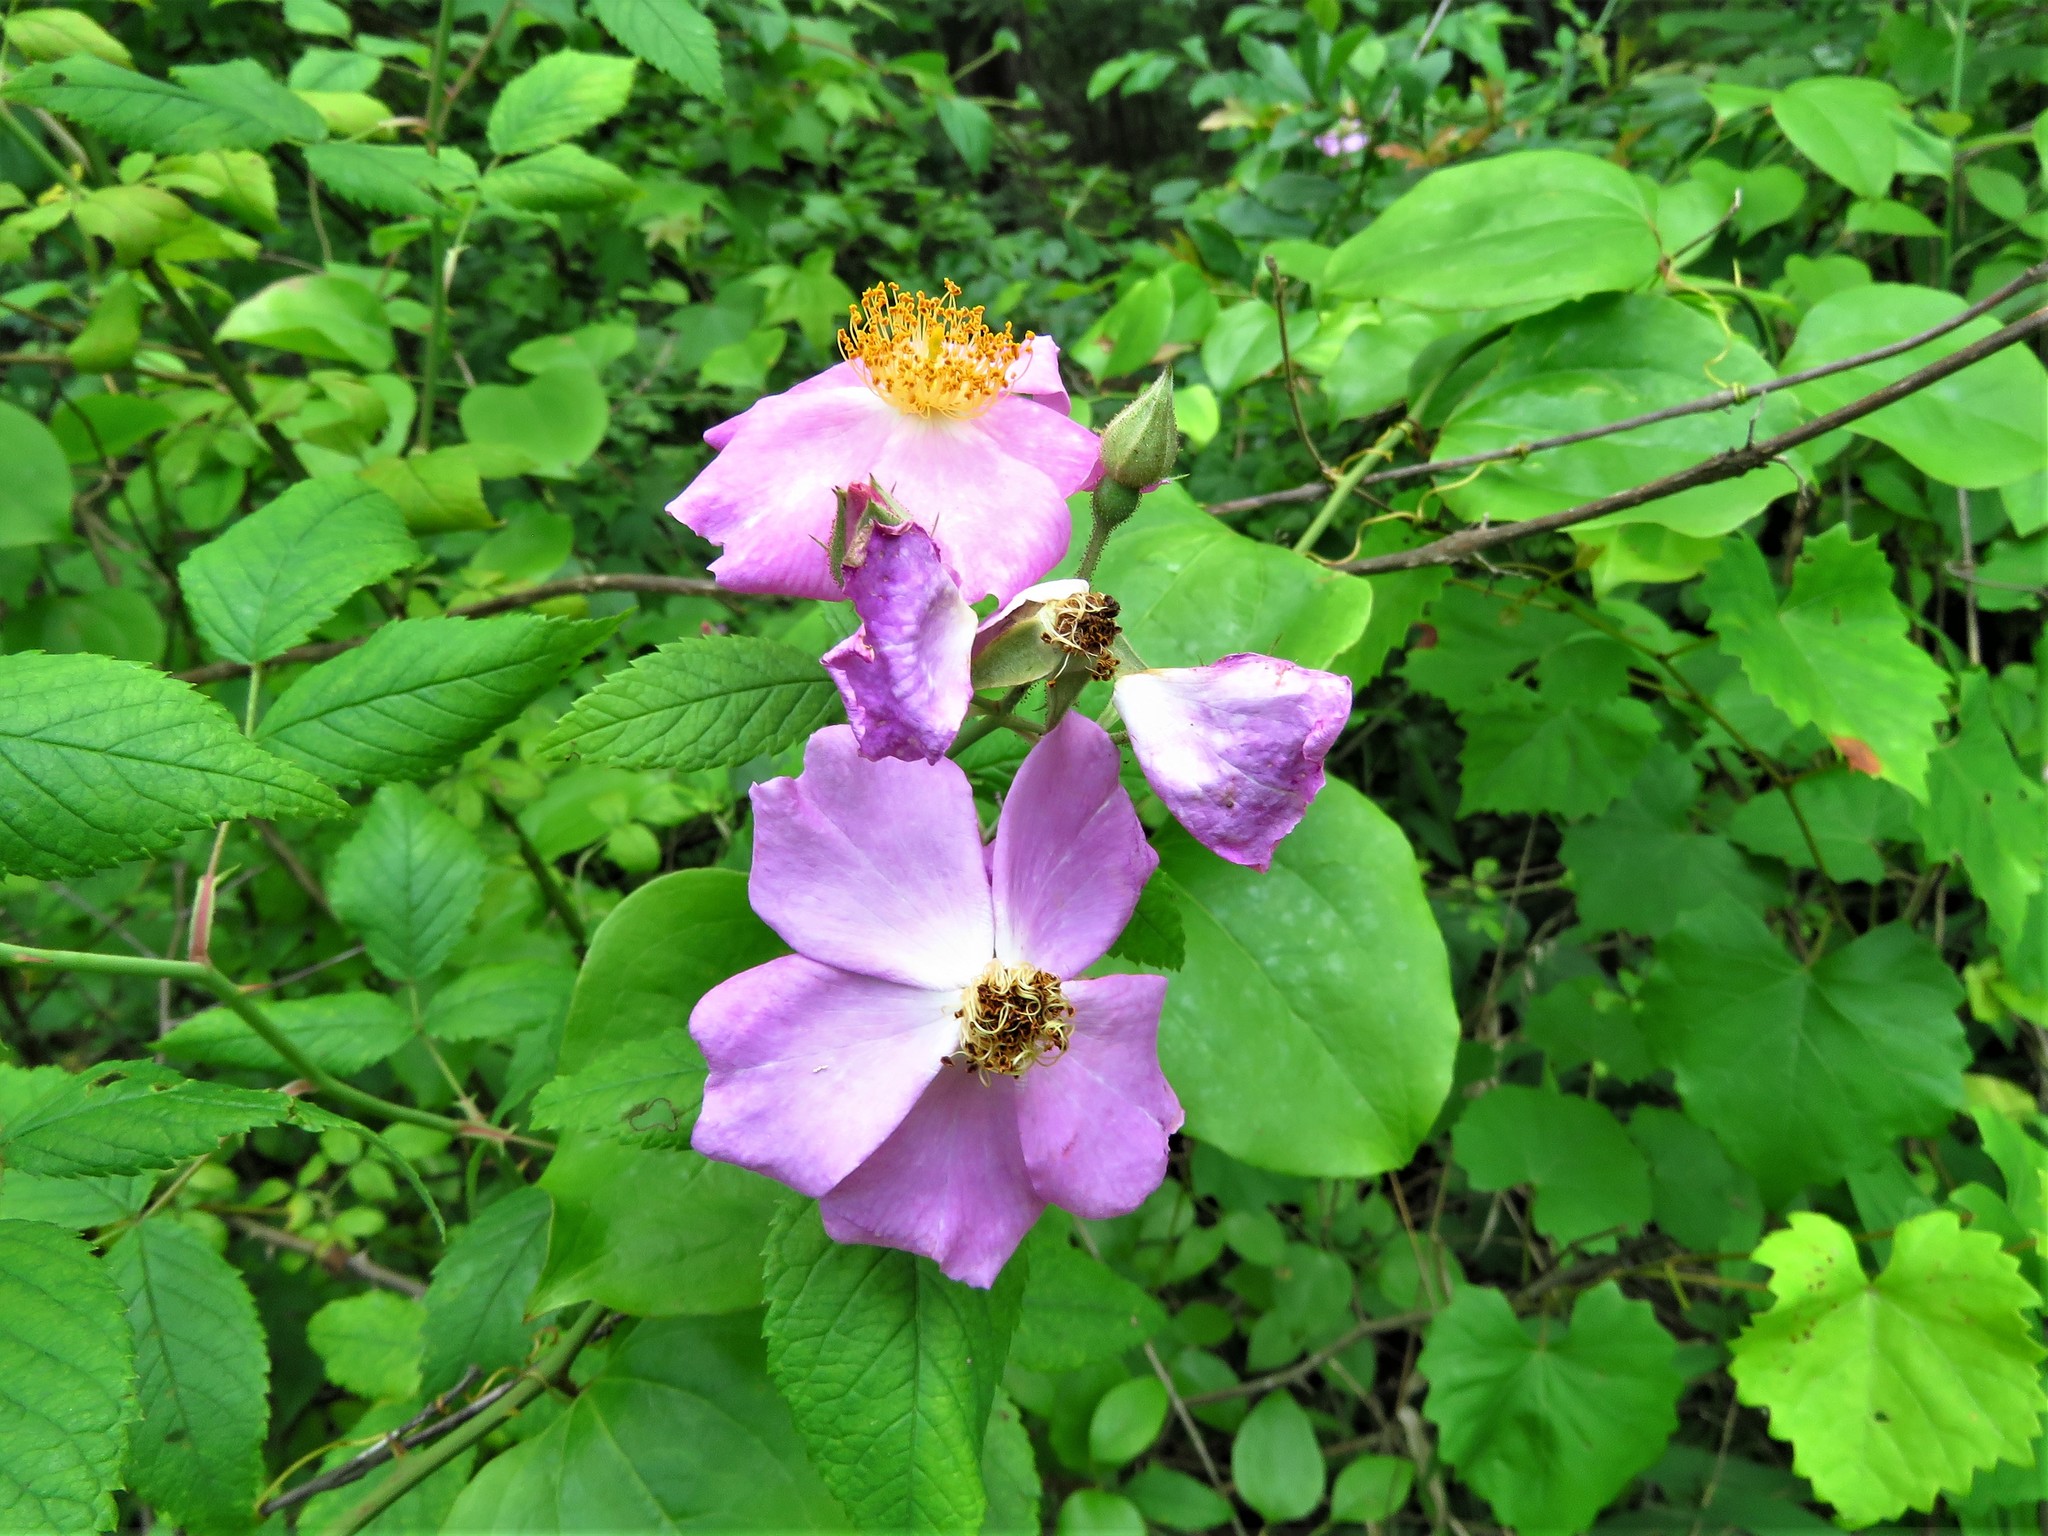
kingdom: Plantae
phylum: Tracheophyta
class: Magnoliopsida
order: Rosales
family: Rosaceae
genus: Rosa
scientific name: Rosa setigera
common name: Prairie rose
